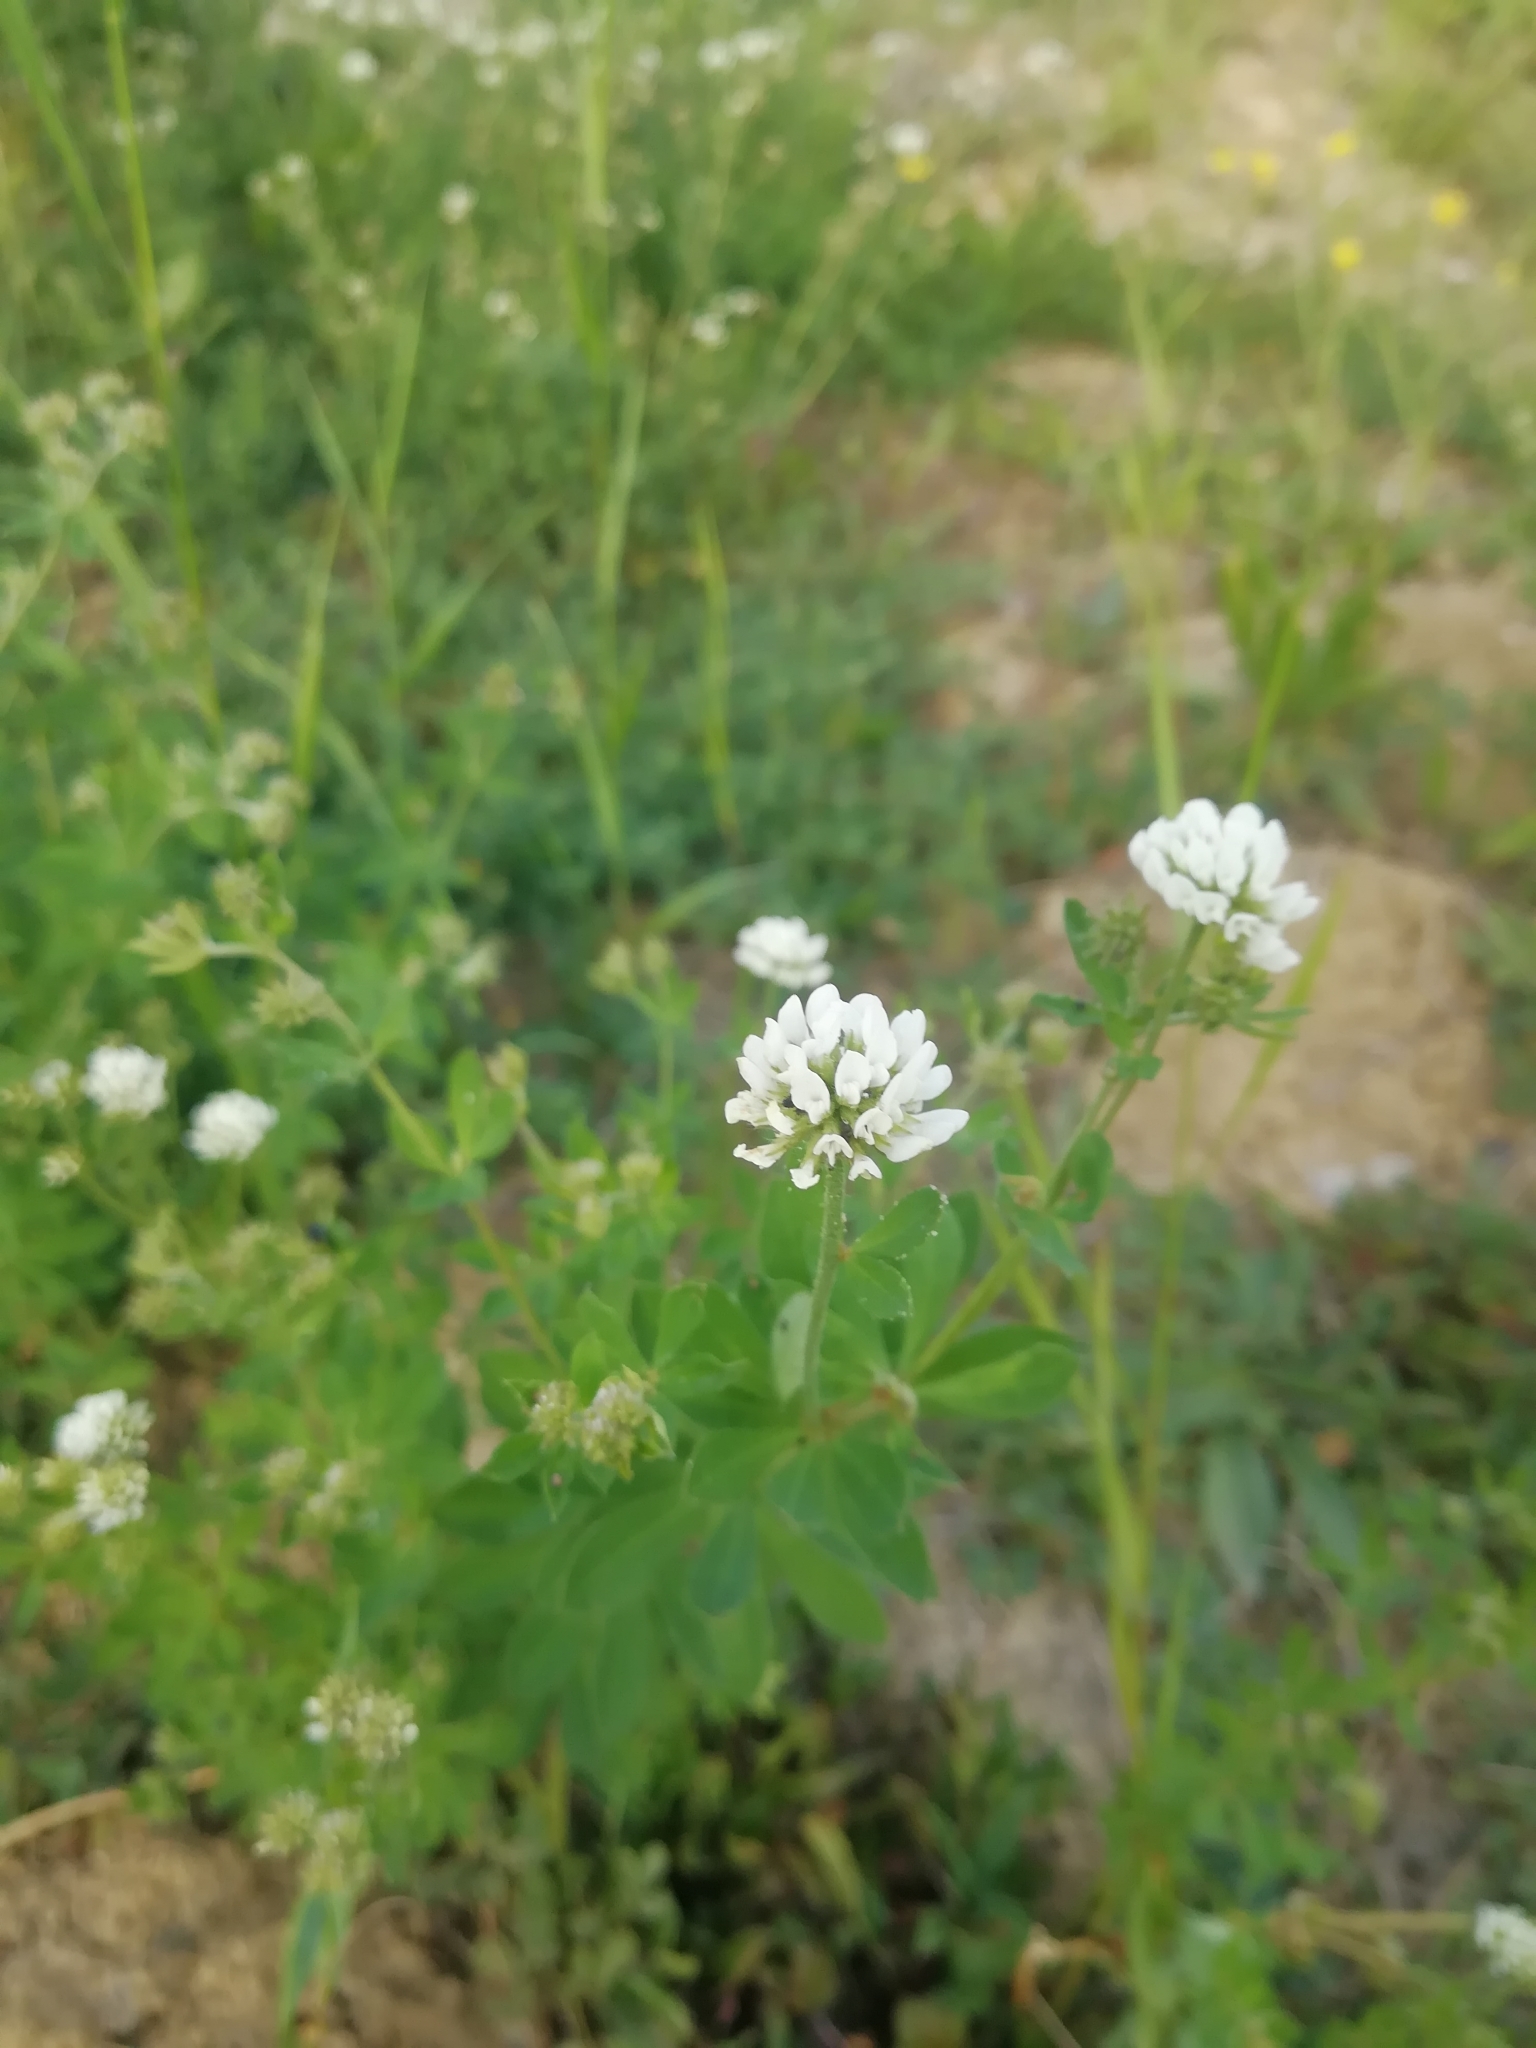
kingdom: Plantae
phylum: Tracheophyta
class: Magnoliopsida
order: Fabales
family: Fabaceae
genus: Lotus
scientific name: Lotus graecus
